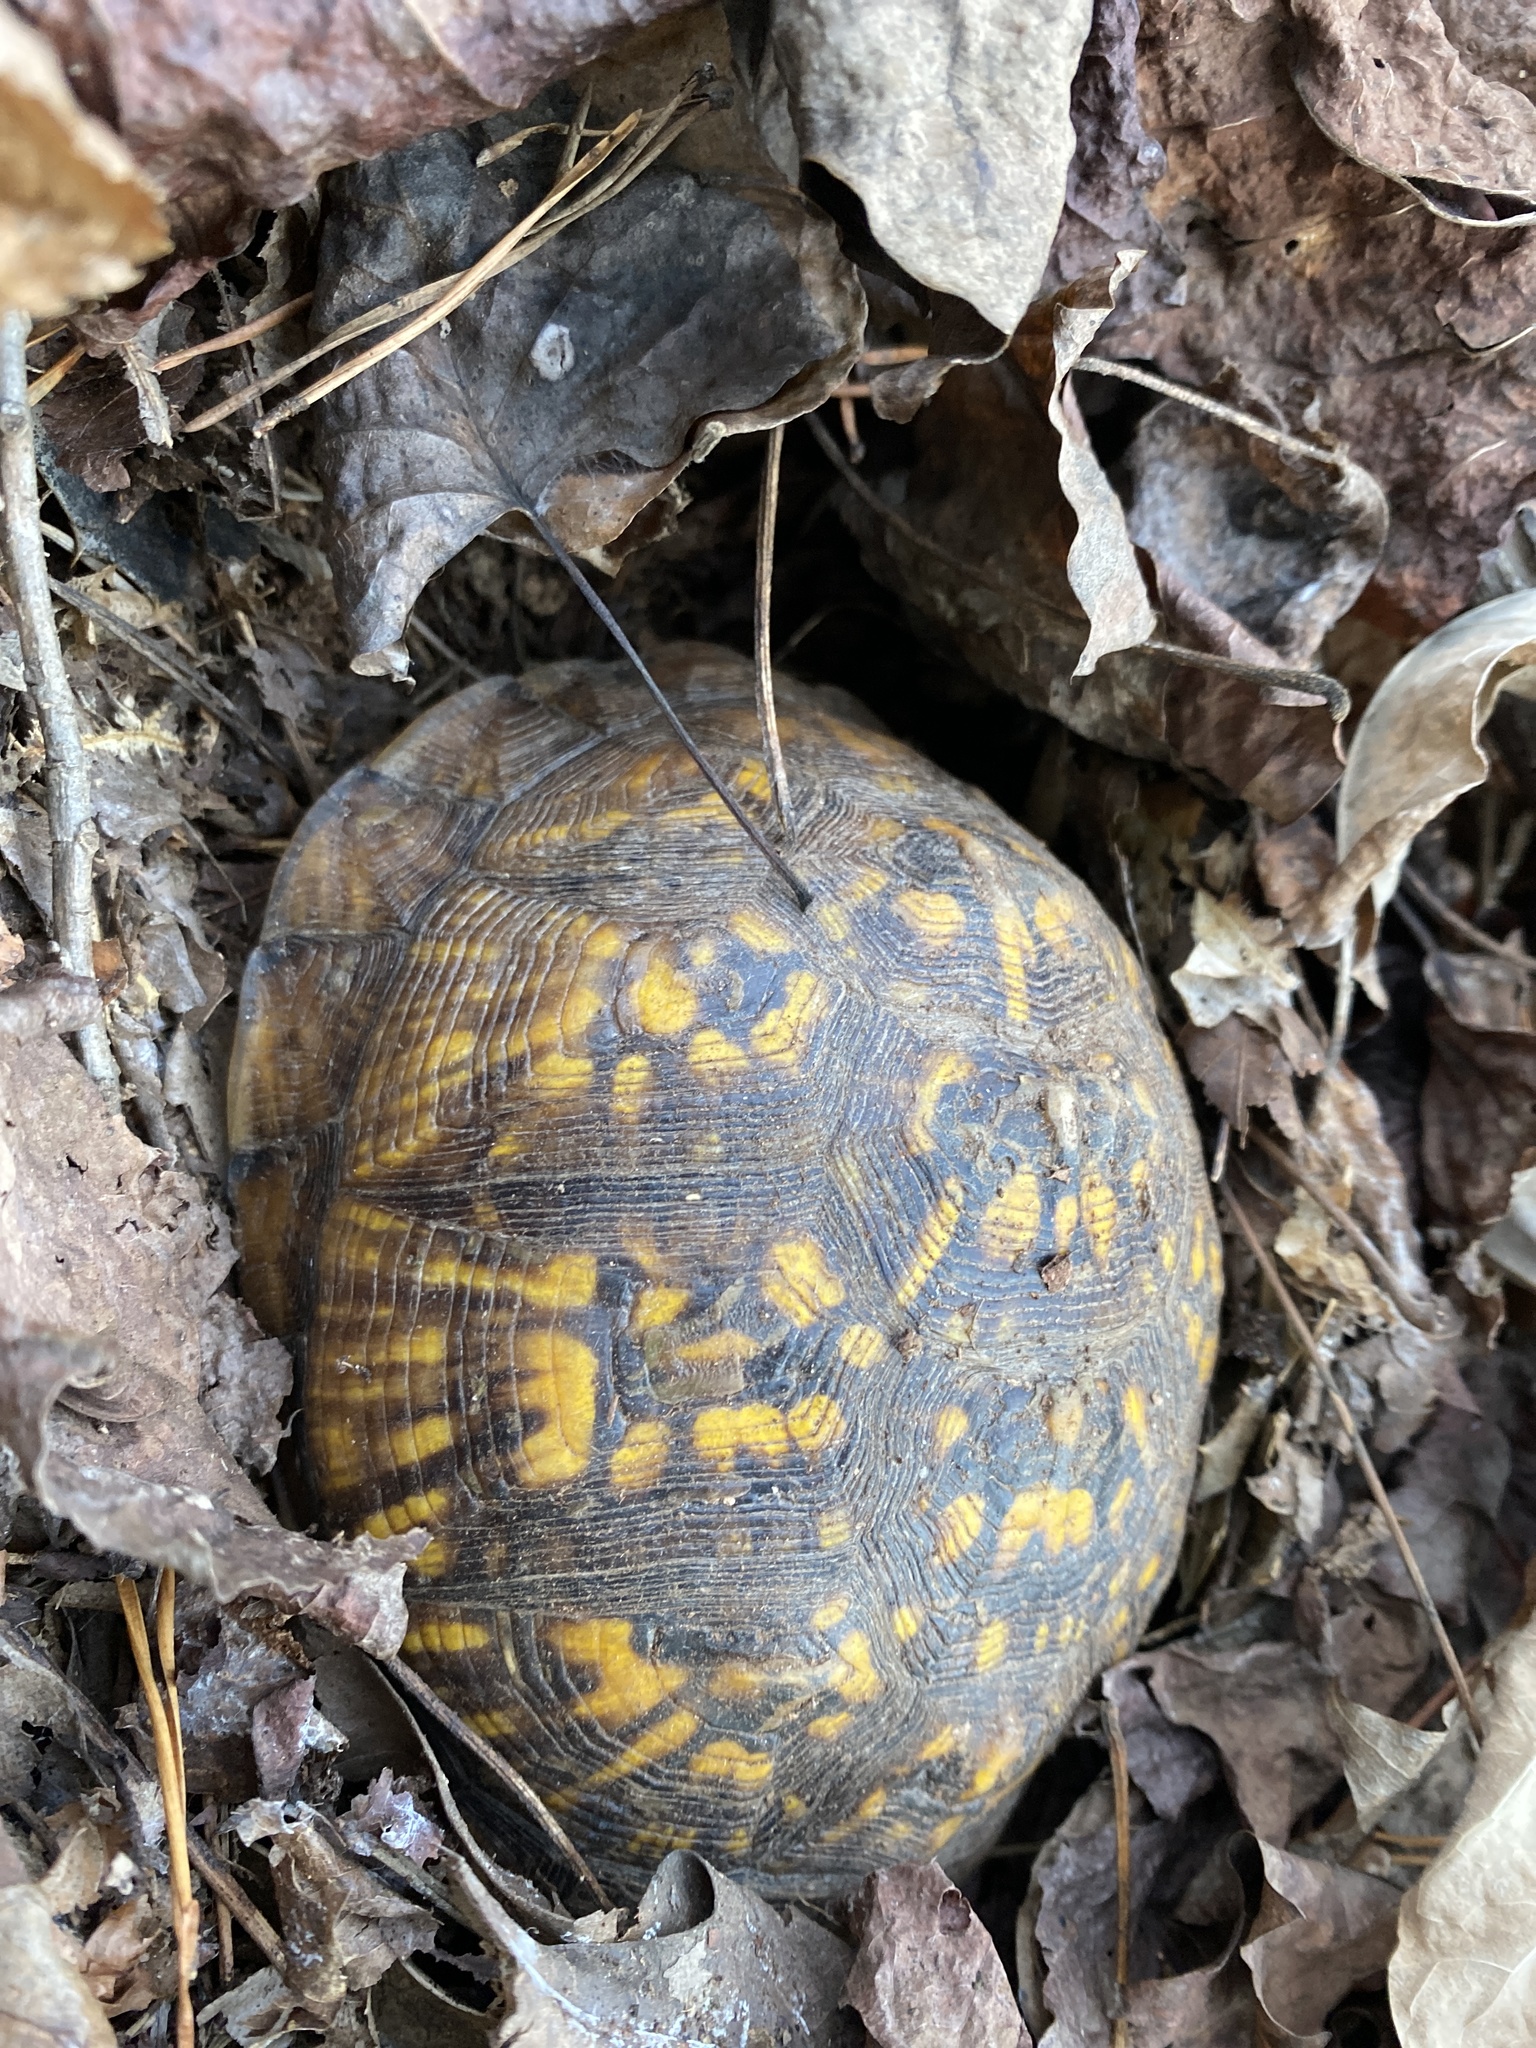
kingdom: Animalia
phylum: Chordata
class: Testudines
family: Emydidae
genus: Terrapene
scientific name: Terrapene carolina
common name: Common box turtle
